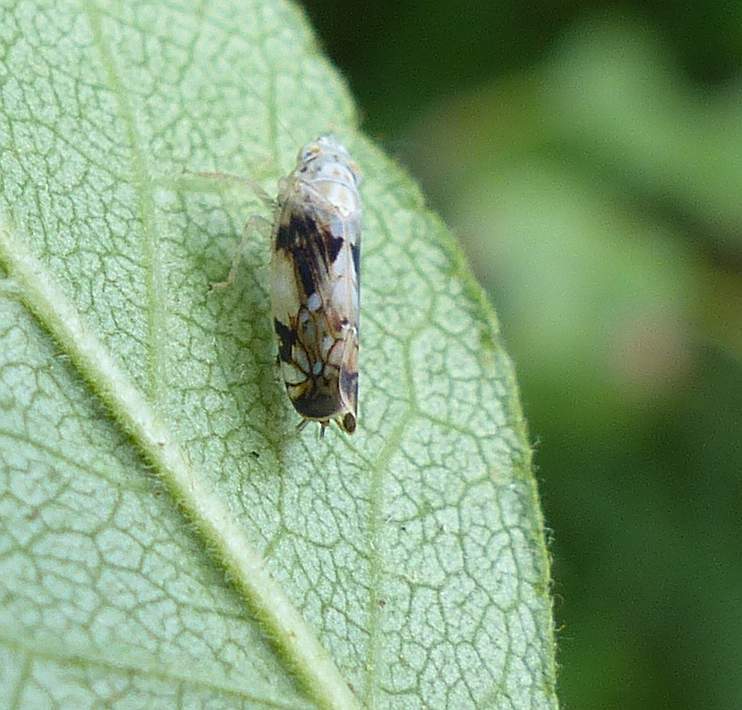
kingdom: Animalia
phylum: Arthropoda
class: Insecta
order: Hemiptera
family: Cicadellidae
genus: Scaphoideus
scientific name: Scaphoideus intricatus
